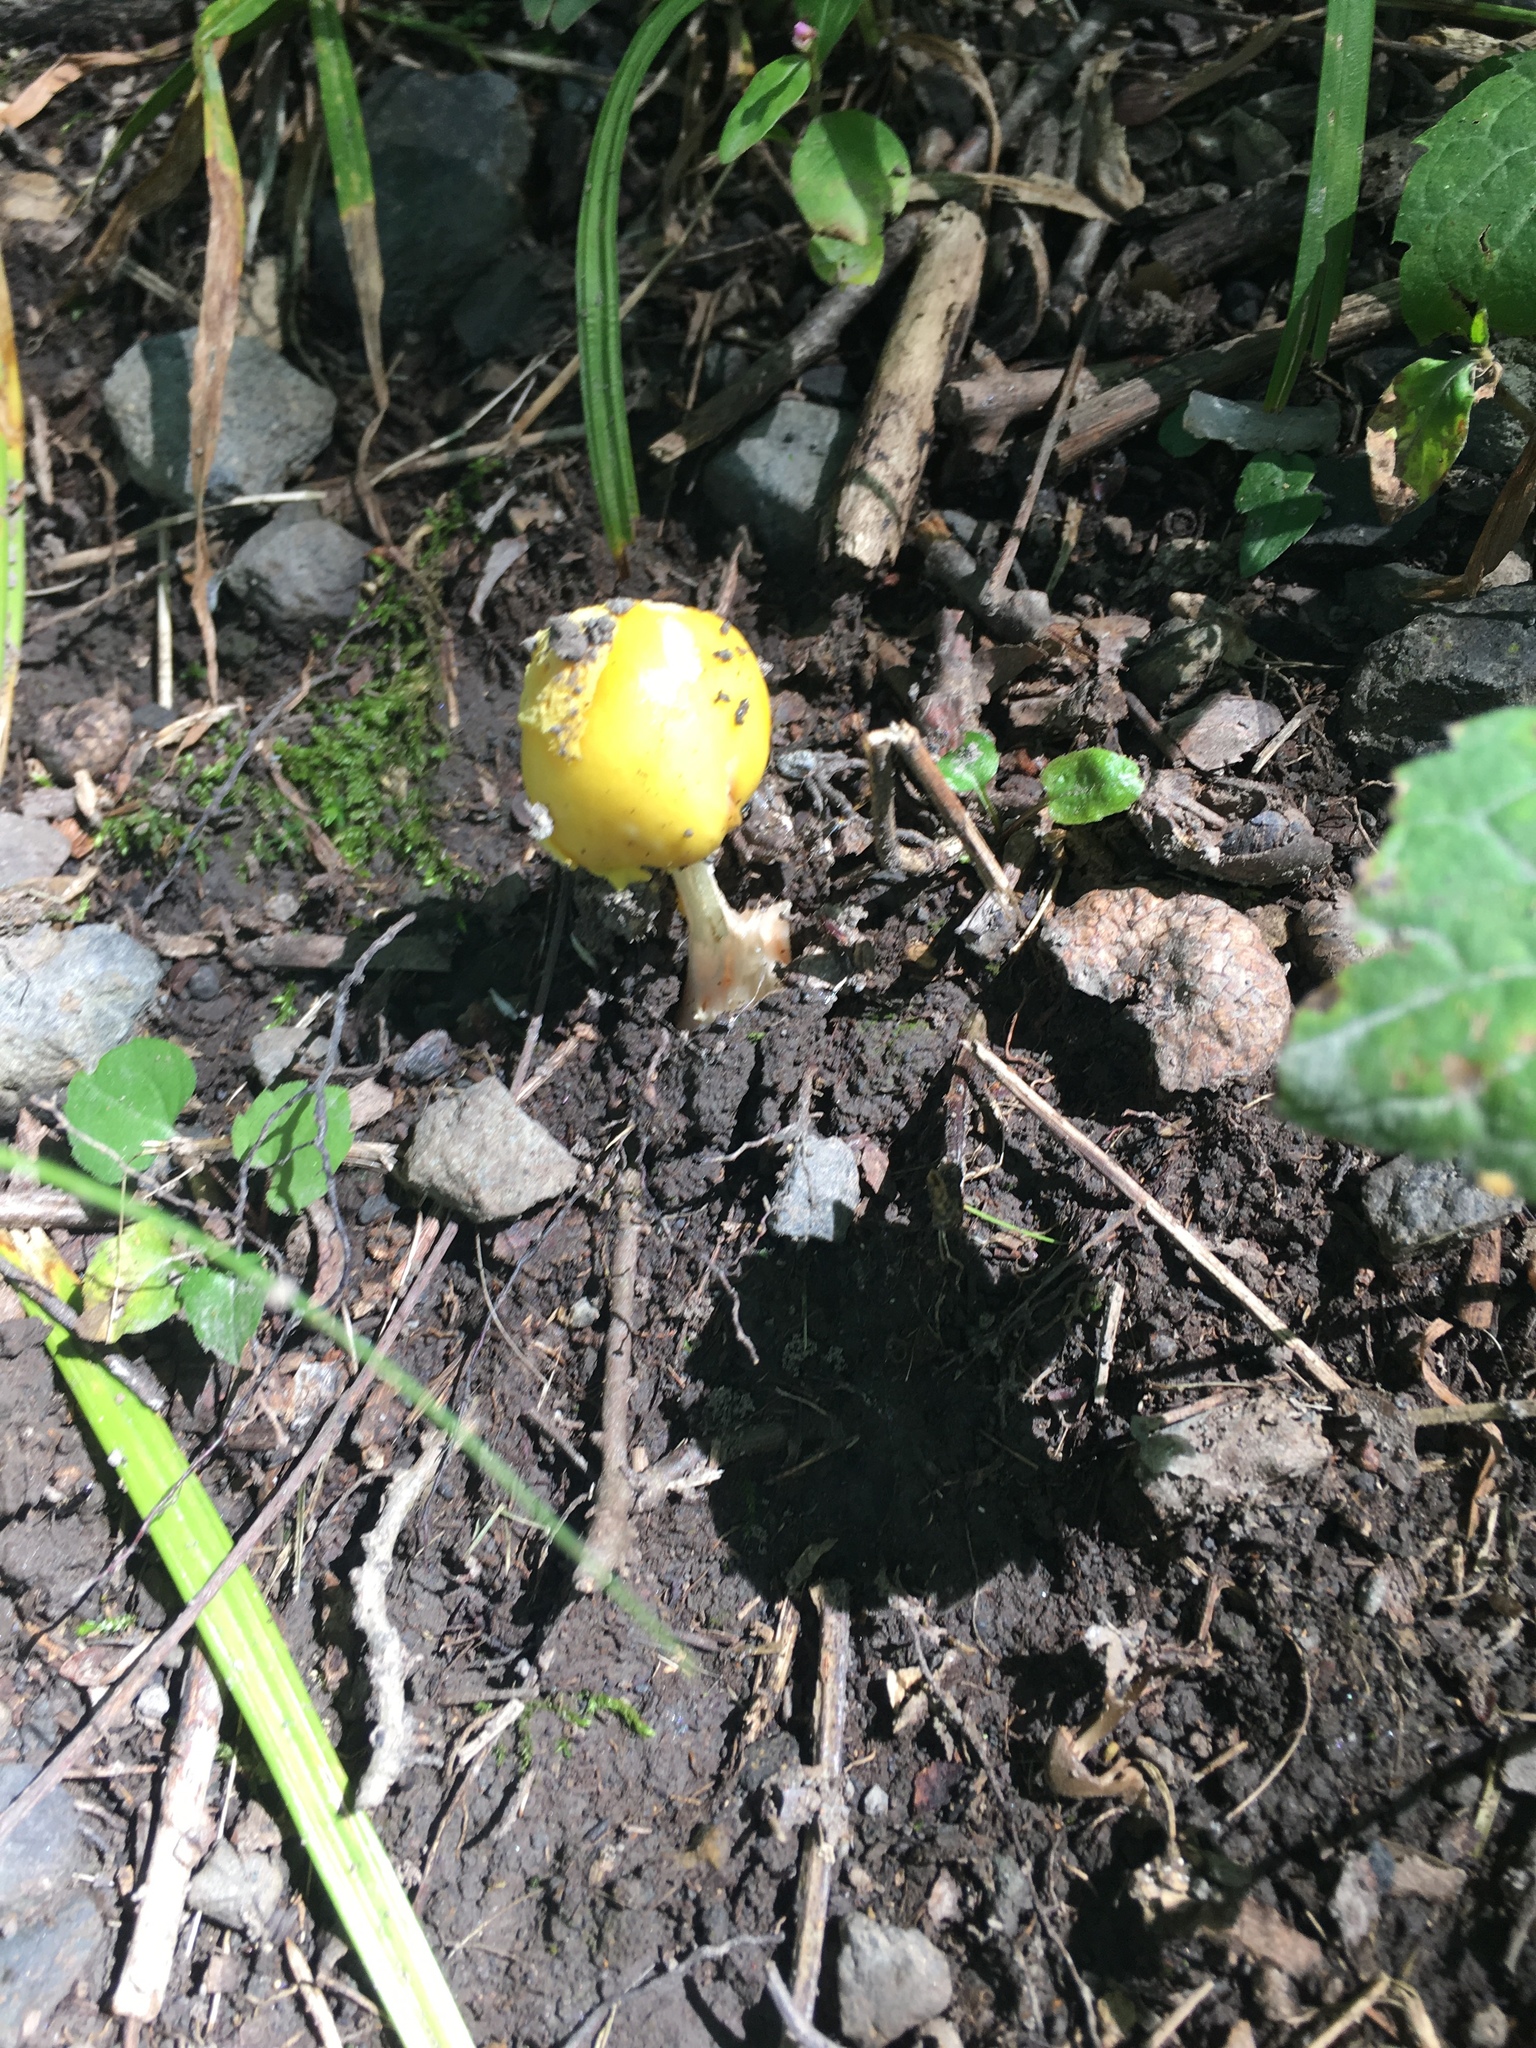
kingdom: Fungi
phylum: Basidiomycota
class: Agaricomycetes
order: Agaricales
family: Amanitaceae
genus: Amanita
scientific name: Amanita flavoconia
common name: Yellow patches
